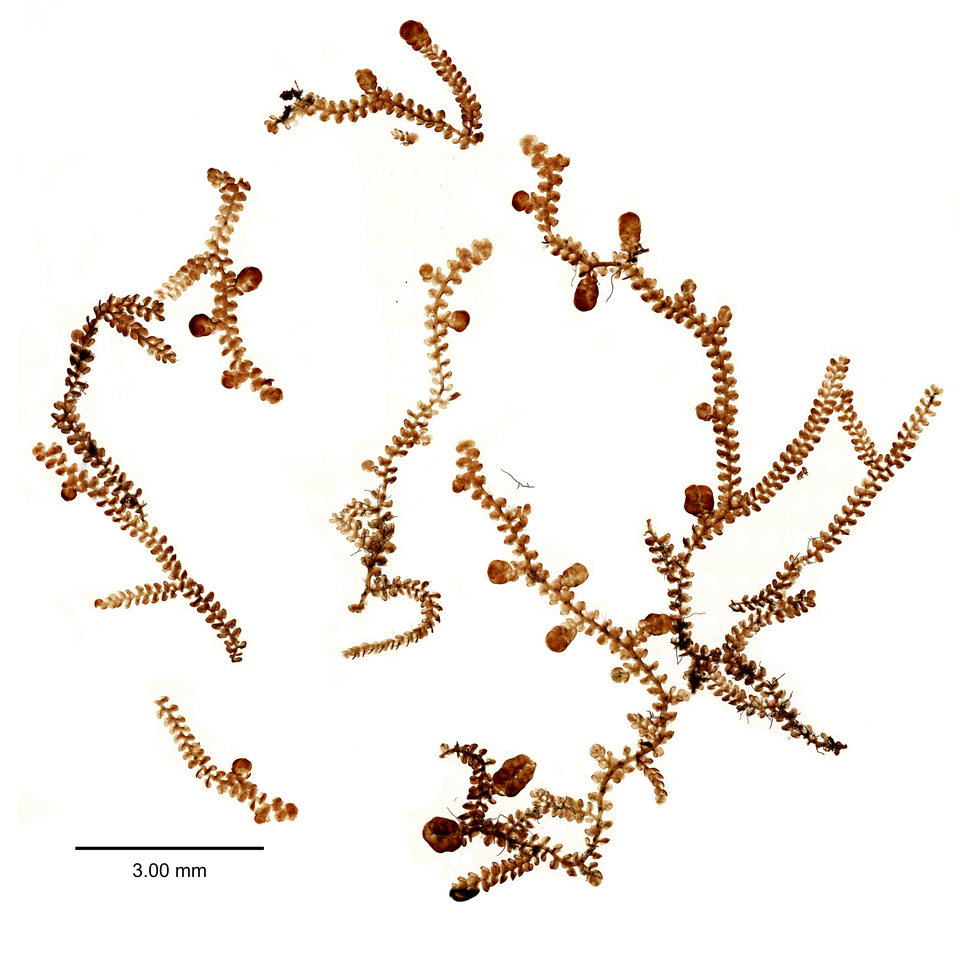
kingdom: Plantae
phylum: Marchantiophyta
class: Jungermanniopsida
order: Porellales
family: Frullaniaceae
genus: Frullania
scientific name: Frullania rostrata
